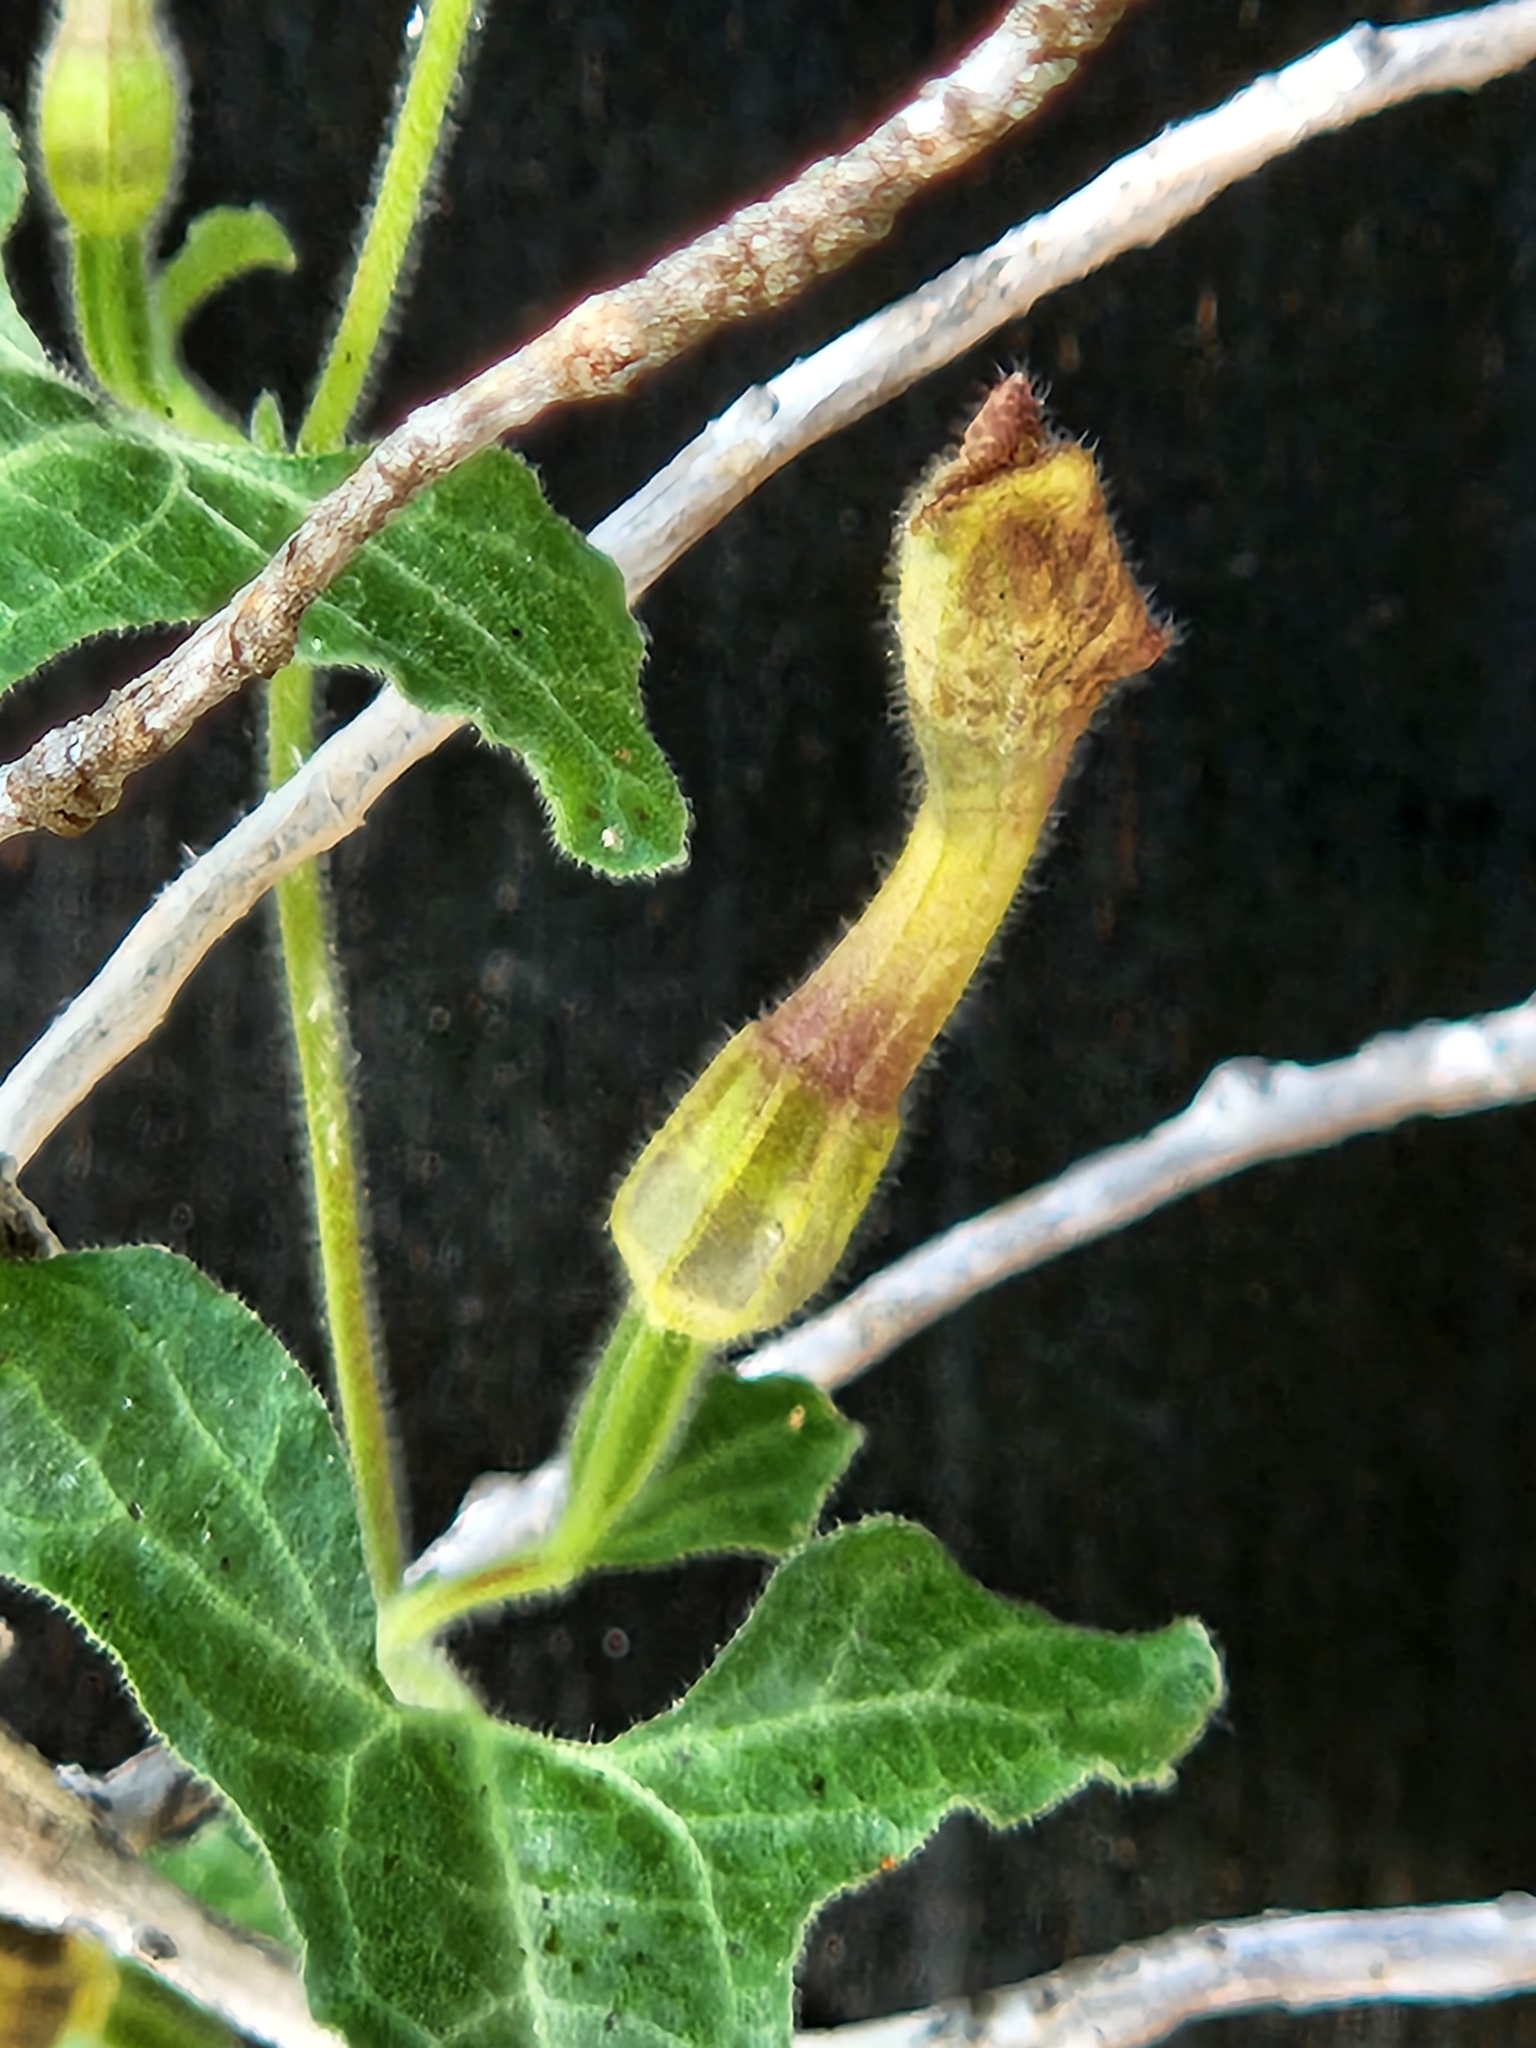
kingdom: Plantae
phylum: Tracheophyta
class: Magnoliopsida
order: Piperales
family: Aristolochiaceae
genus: Aristolochia
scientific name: Aristolochia coryi
